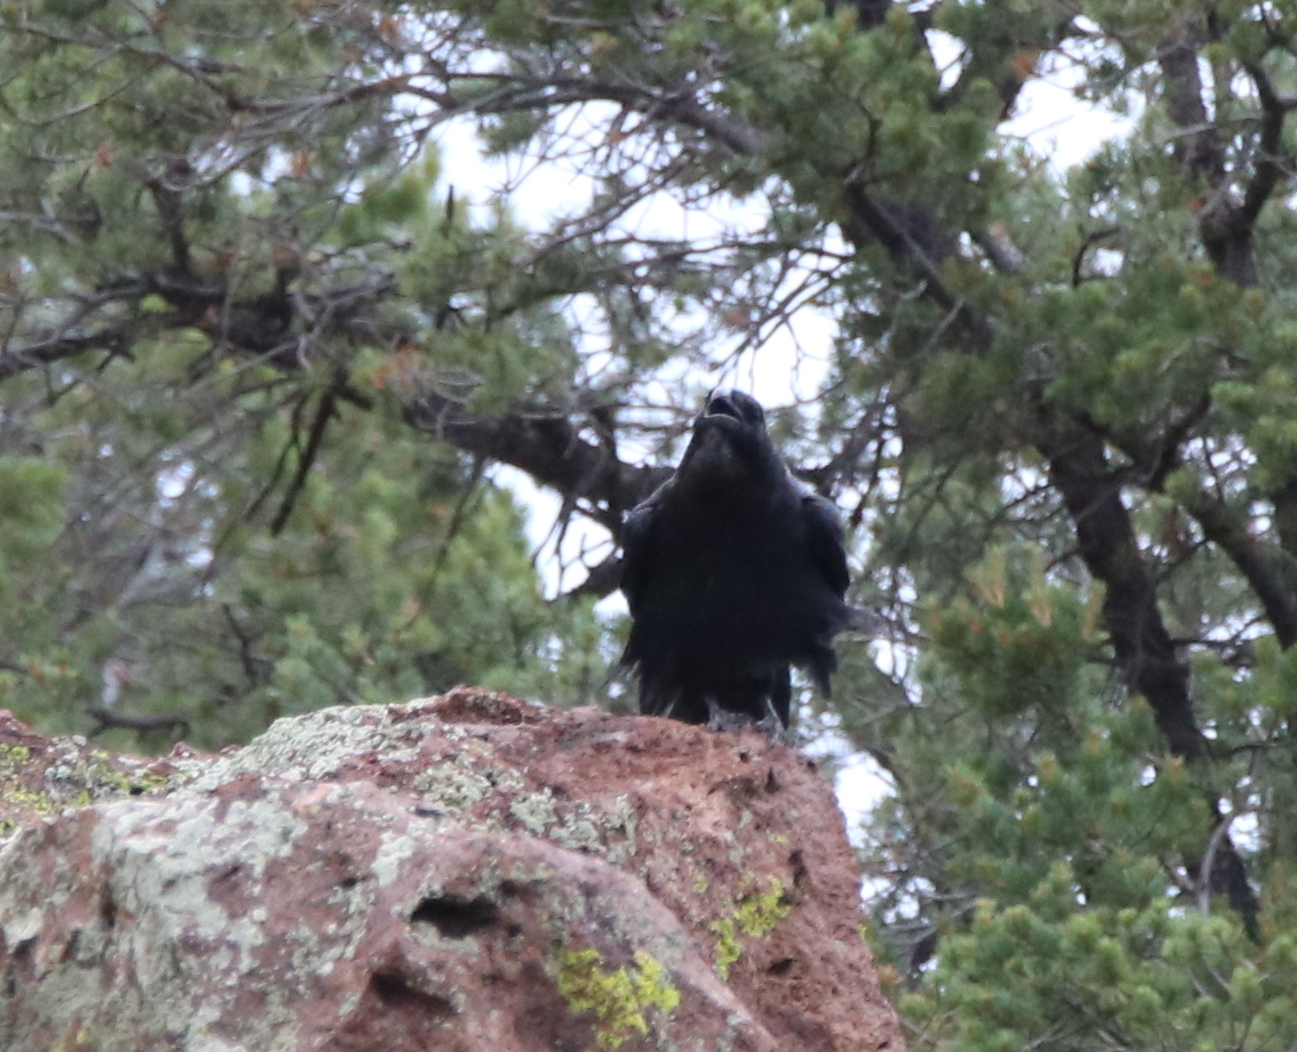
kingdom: Animalia
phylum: Chordata
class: Aves
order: Passeriformes
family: Corvidae
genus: Corvus
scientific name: Corvus corax
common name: Common raven
